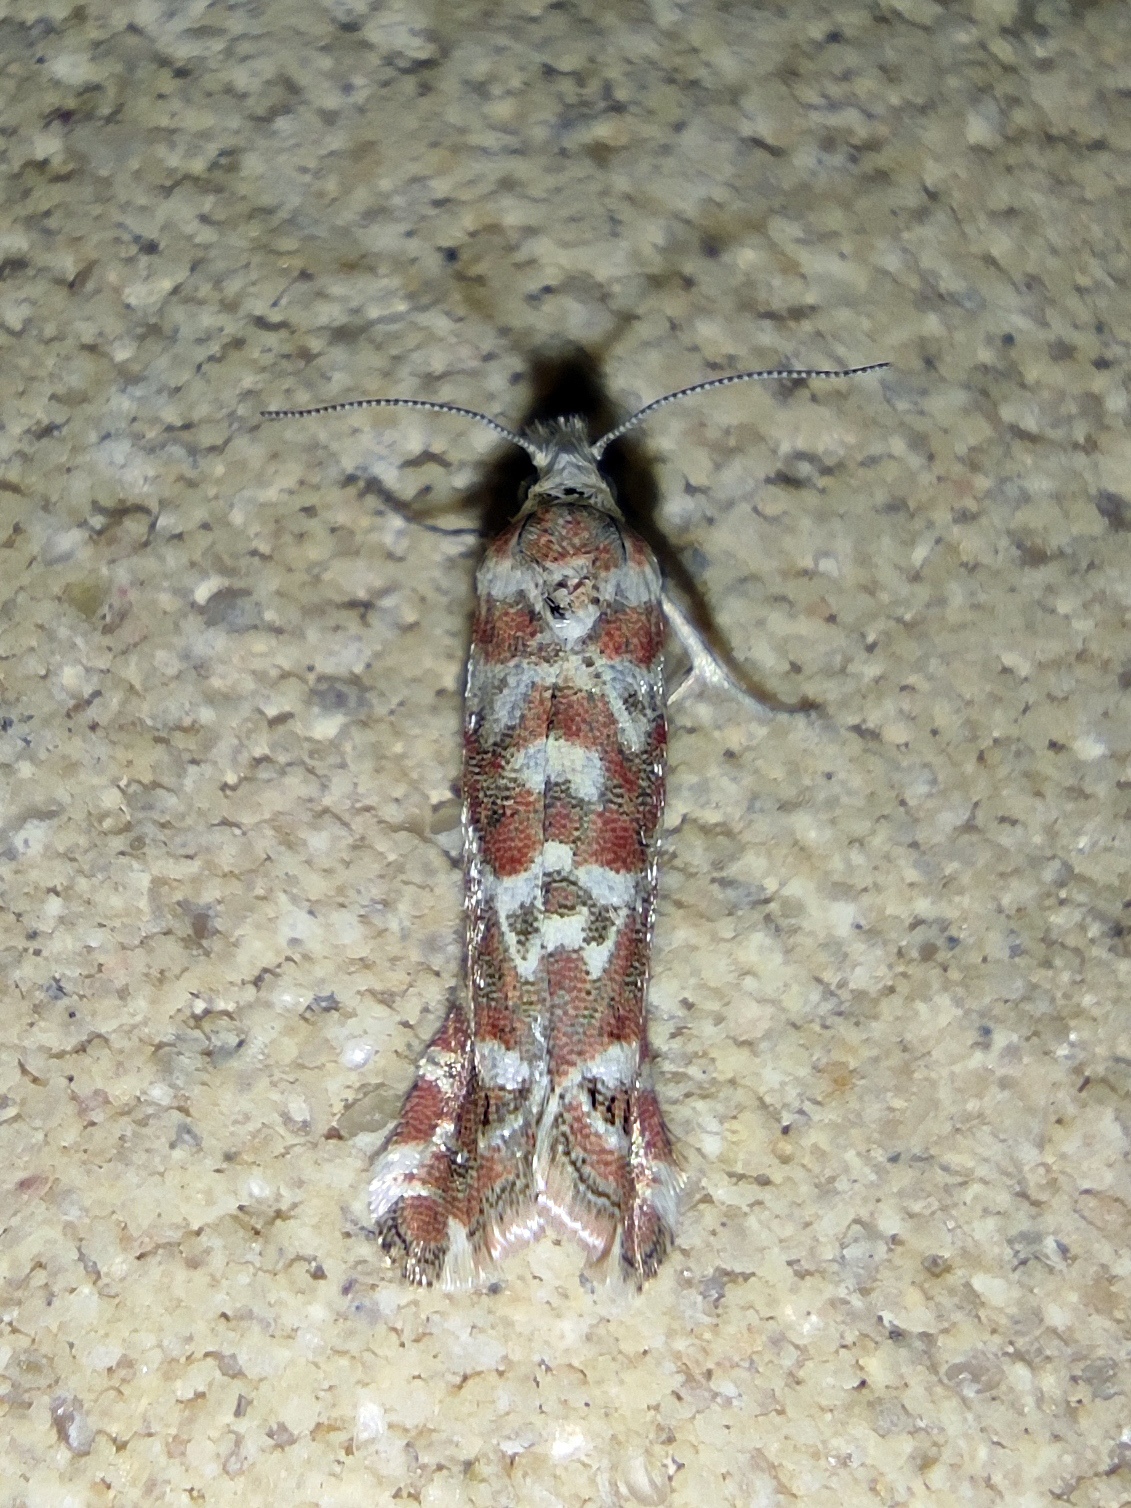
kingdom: Animalia
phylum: Arthropoda
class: Insecta
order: Lepidoptera
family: Tortricidae
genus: Thiodia
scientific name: Thiodia placidana
